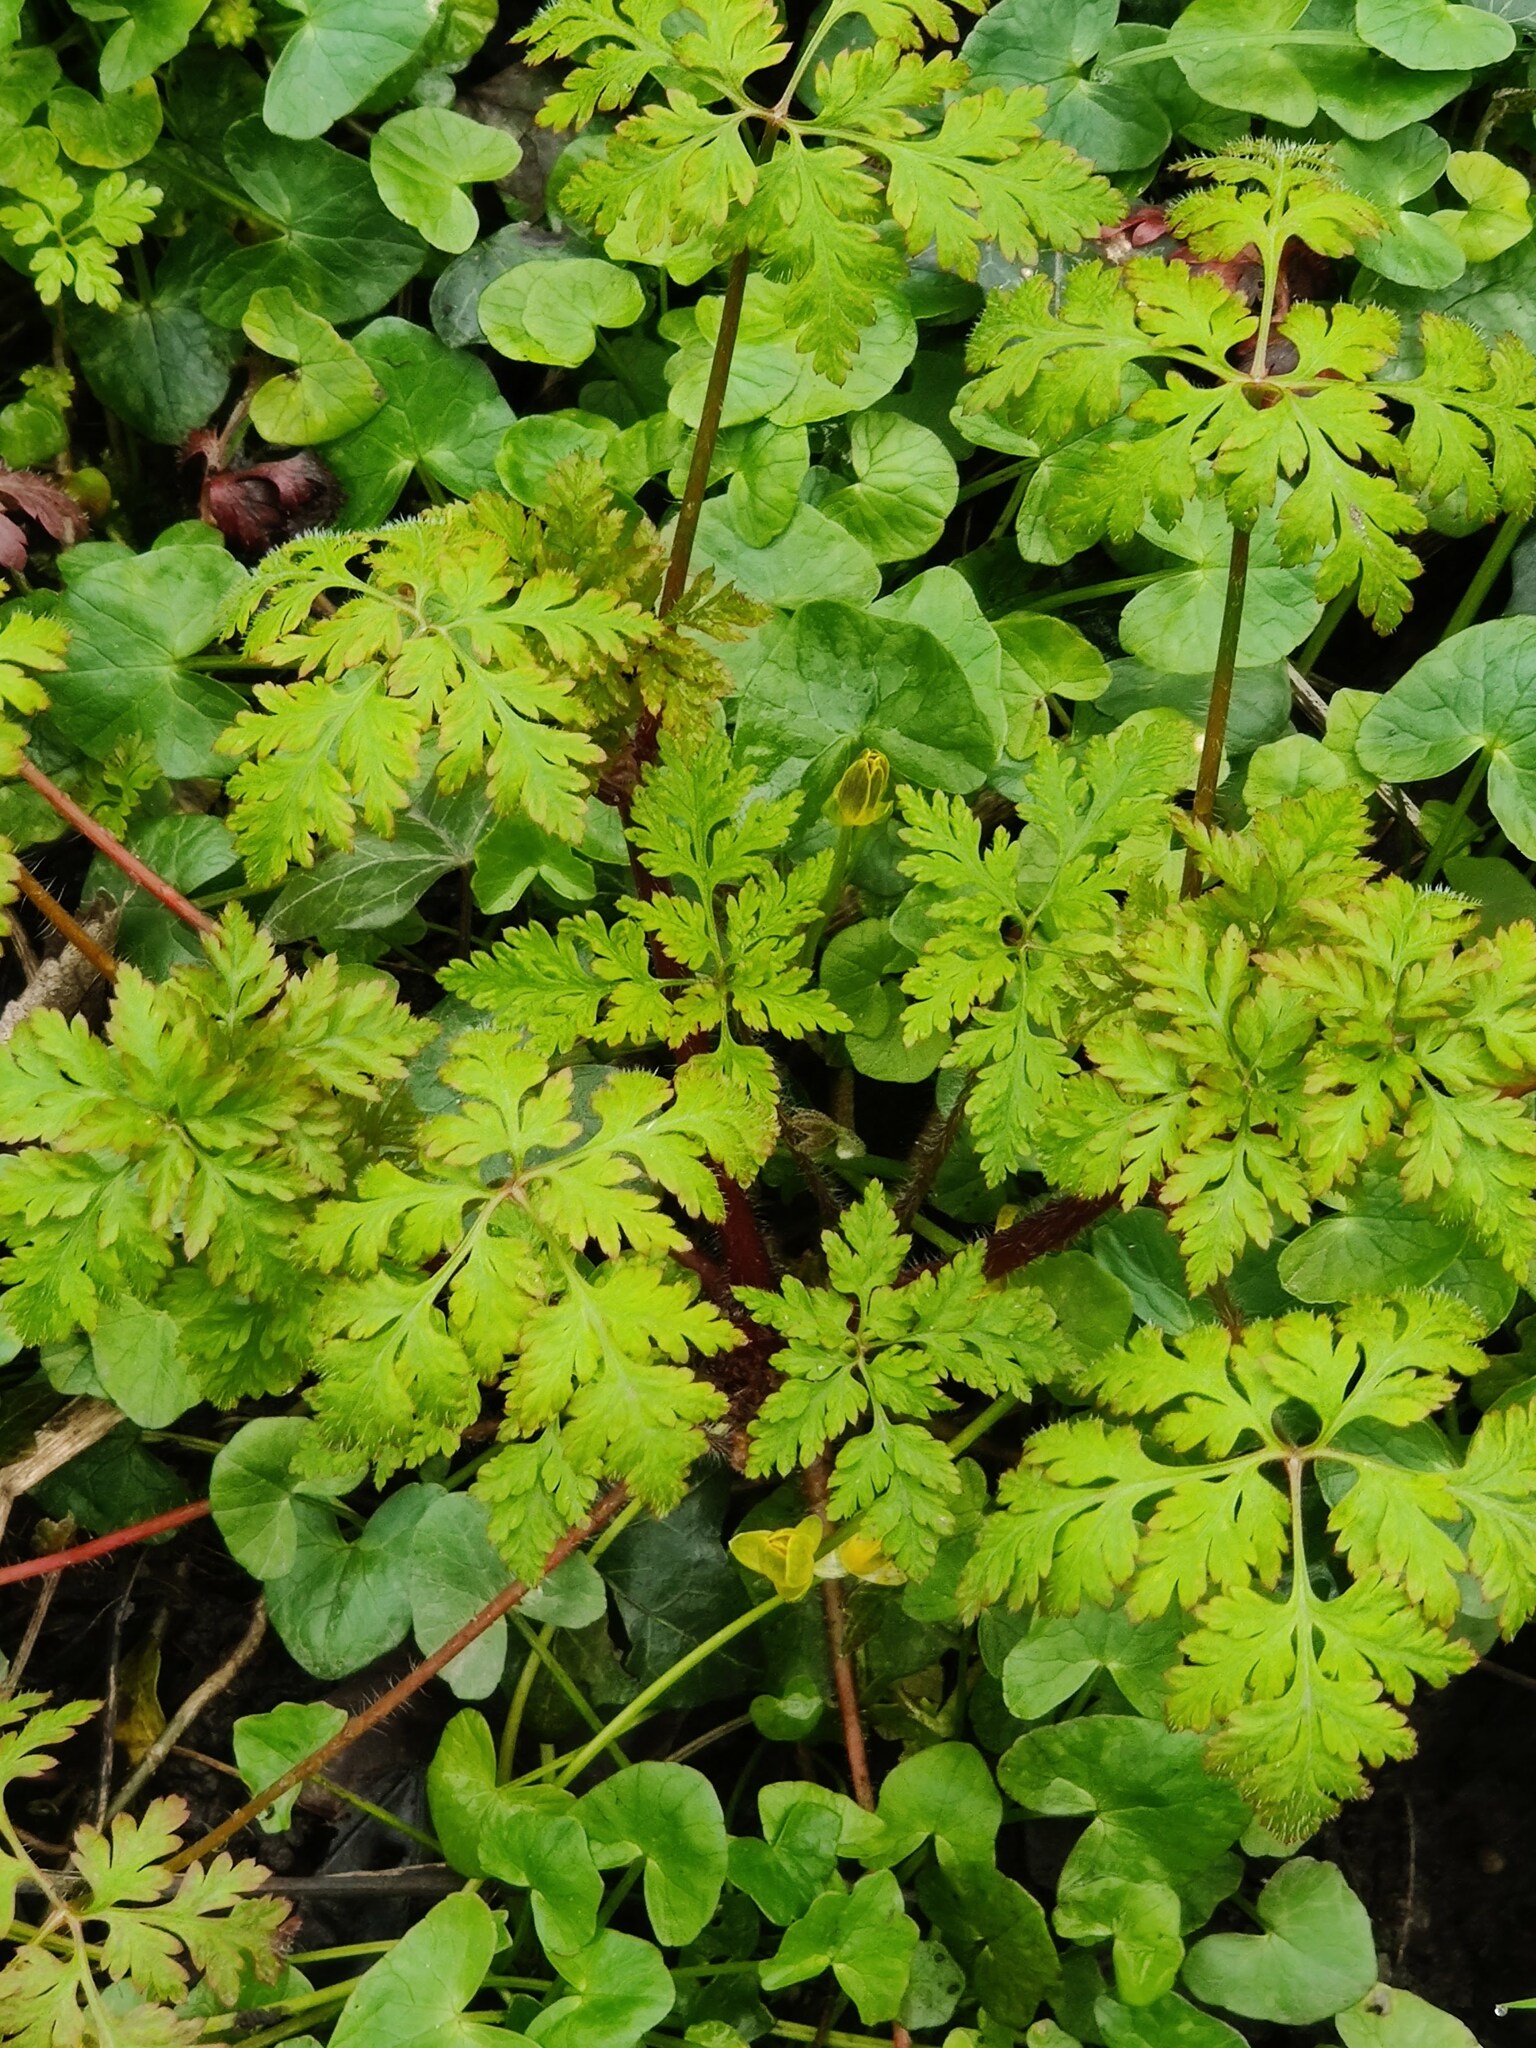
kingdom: Plantae
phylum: Tracheophyta
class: Magnoliopsida
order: Geraniales
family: Geraniaceae
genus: Geranium
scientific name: Geranium robertianum
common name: Herb-robert
